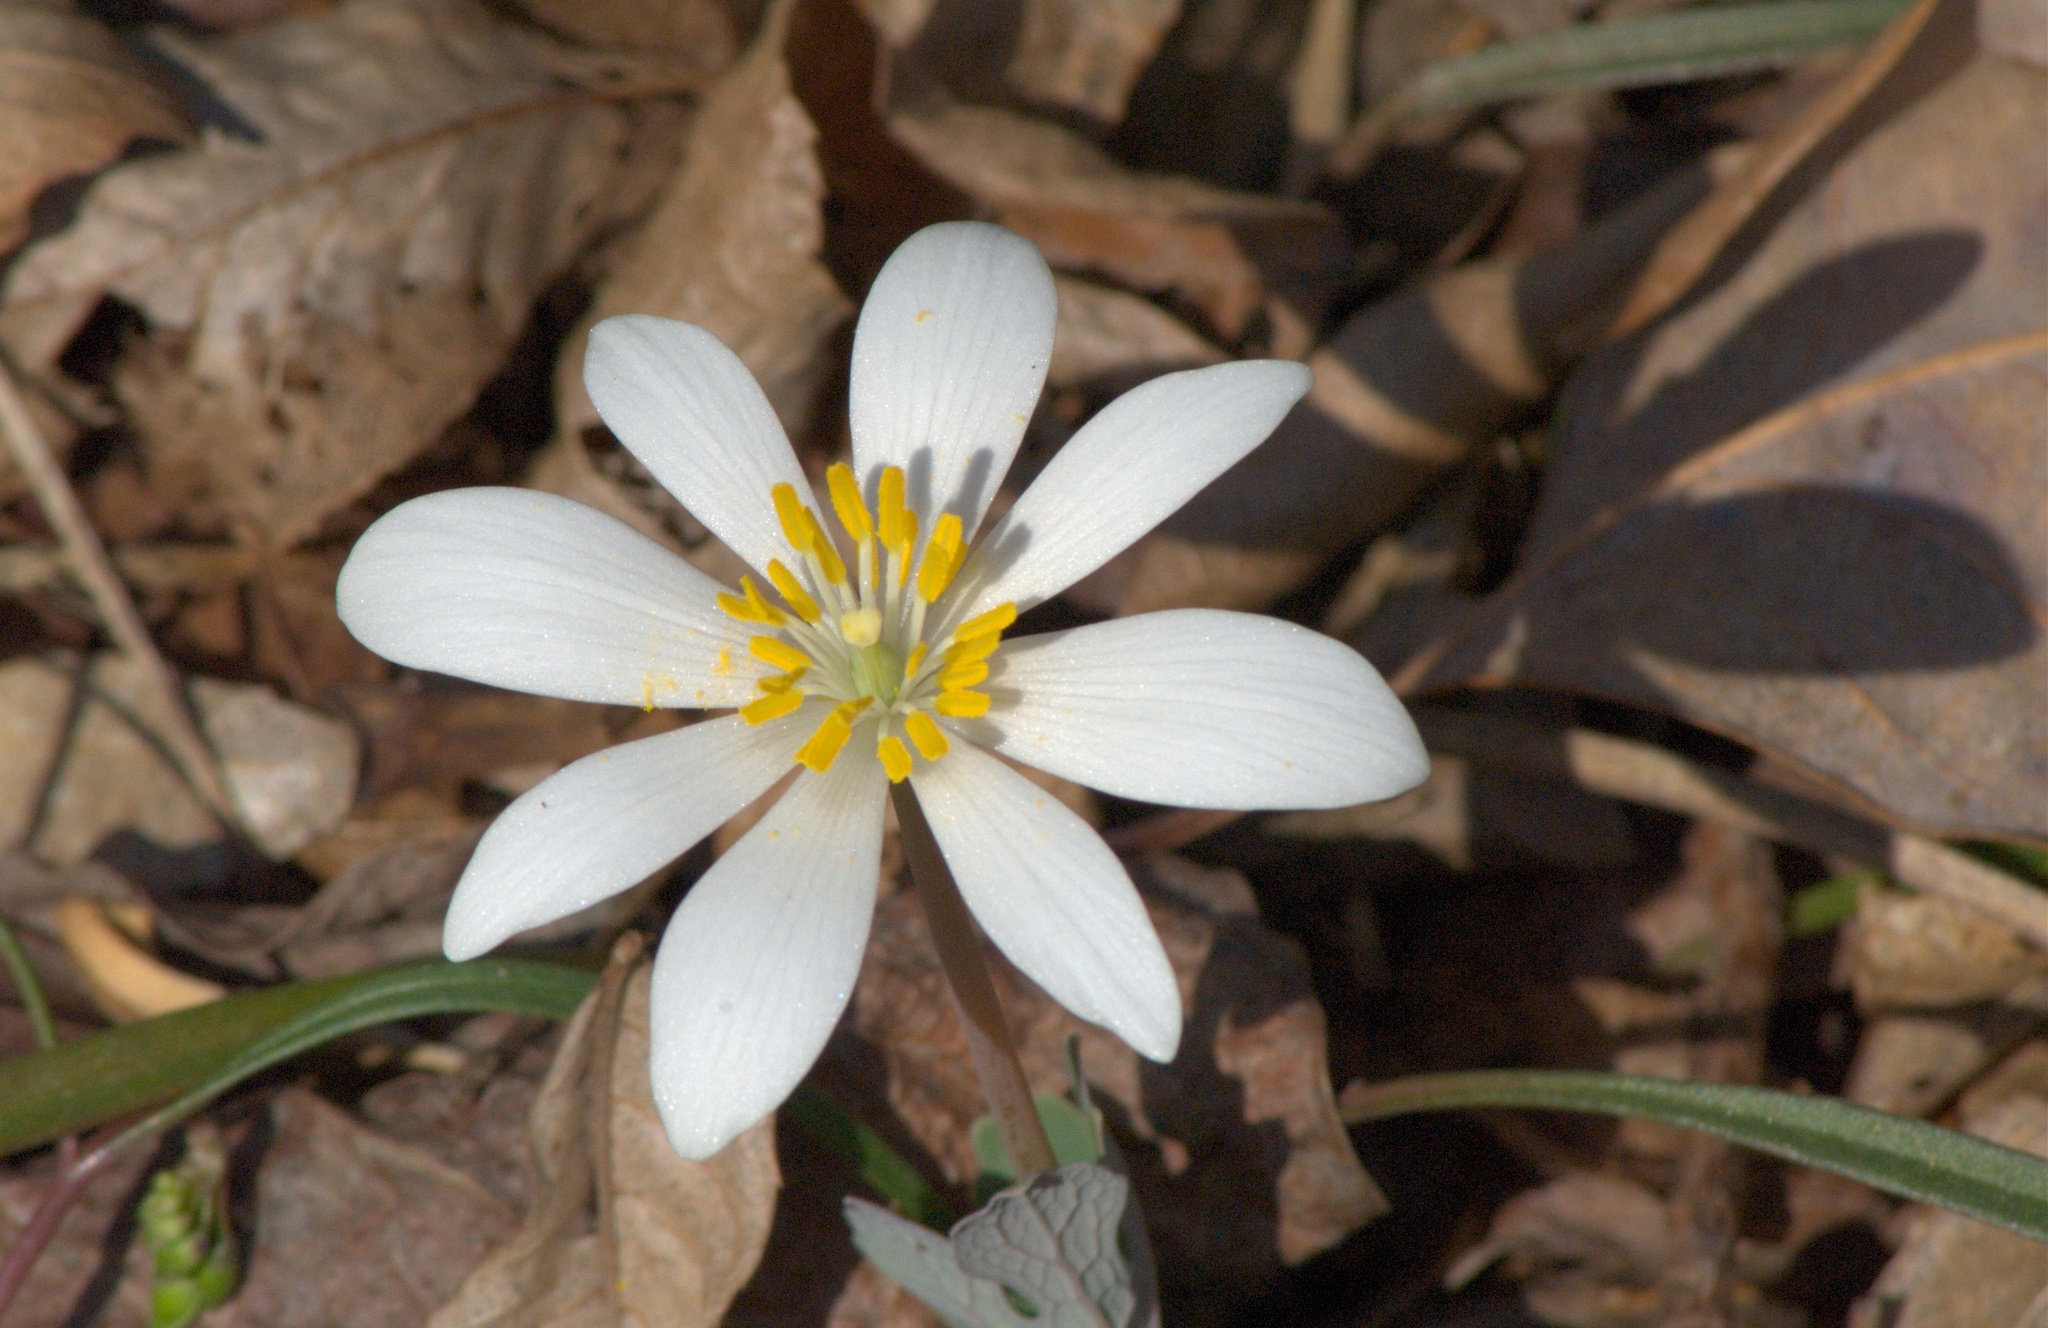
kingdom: Plantae
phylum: Tracheophyta
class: Magnoliopsida
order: Ranunculales
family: Papaveraceae
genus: Sanguinaria
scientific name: Sanguinaria canadensis
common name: Bloodroot
